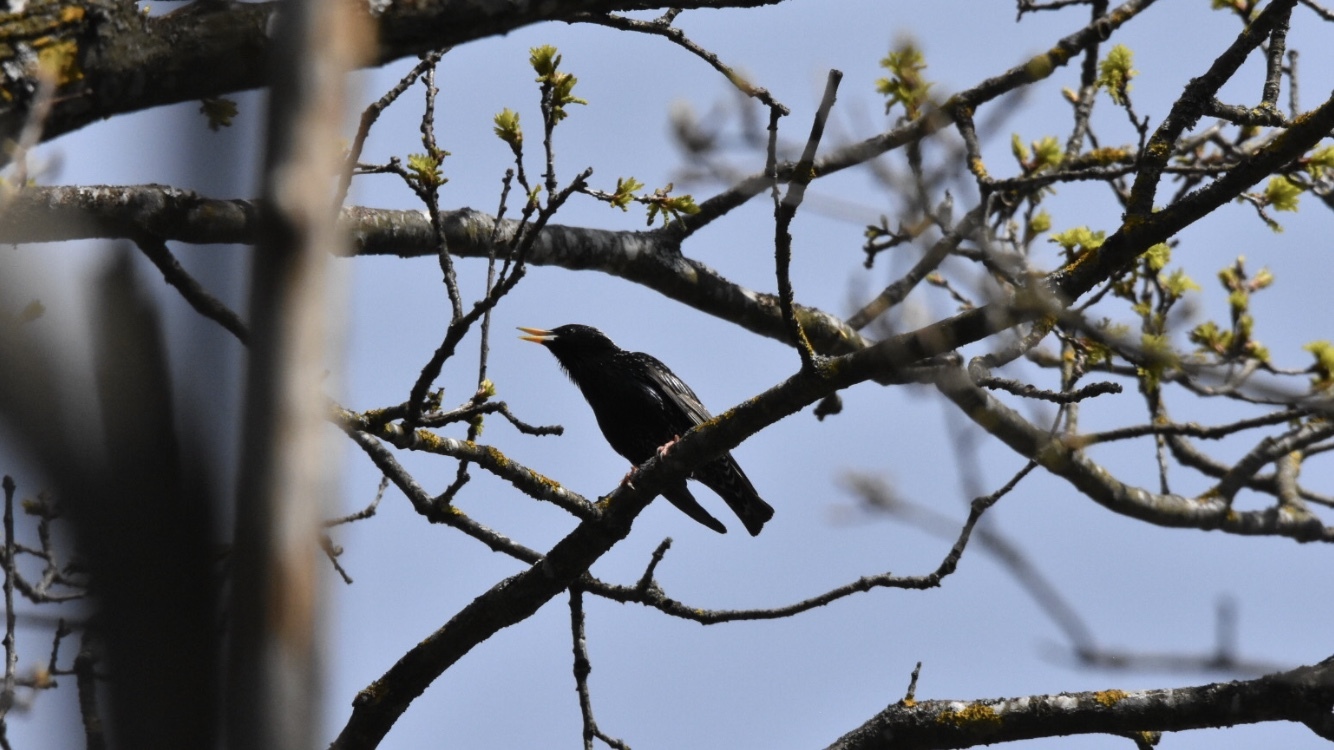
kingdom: Animalia
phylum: Chordata
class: Aves
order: Passeriformes
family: Sturnidae
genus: Sturnus
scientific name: Sturnus vulgaris
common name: Common starling
